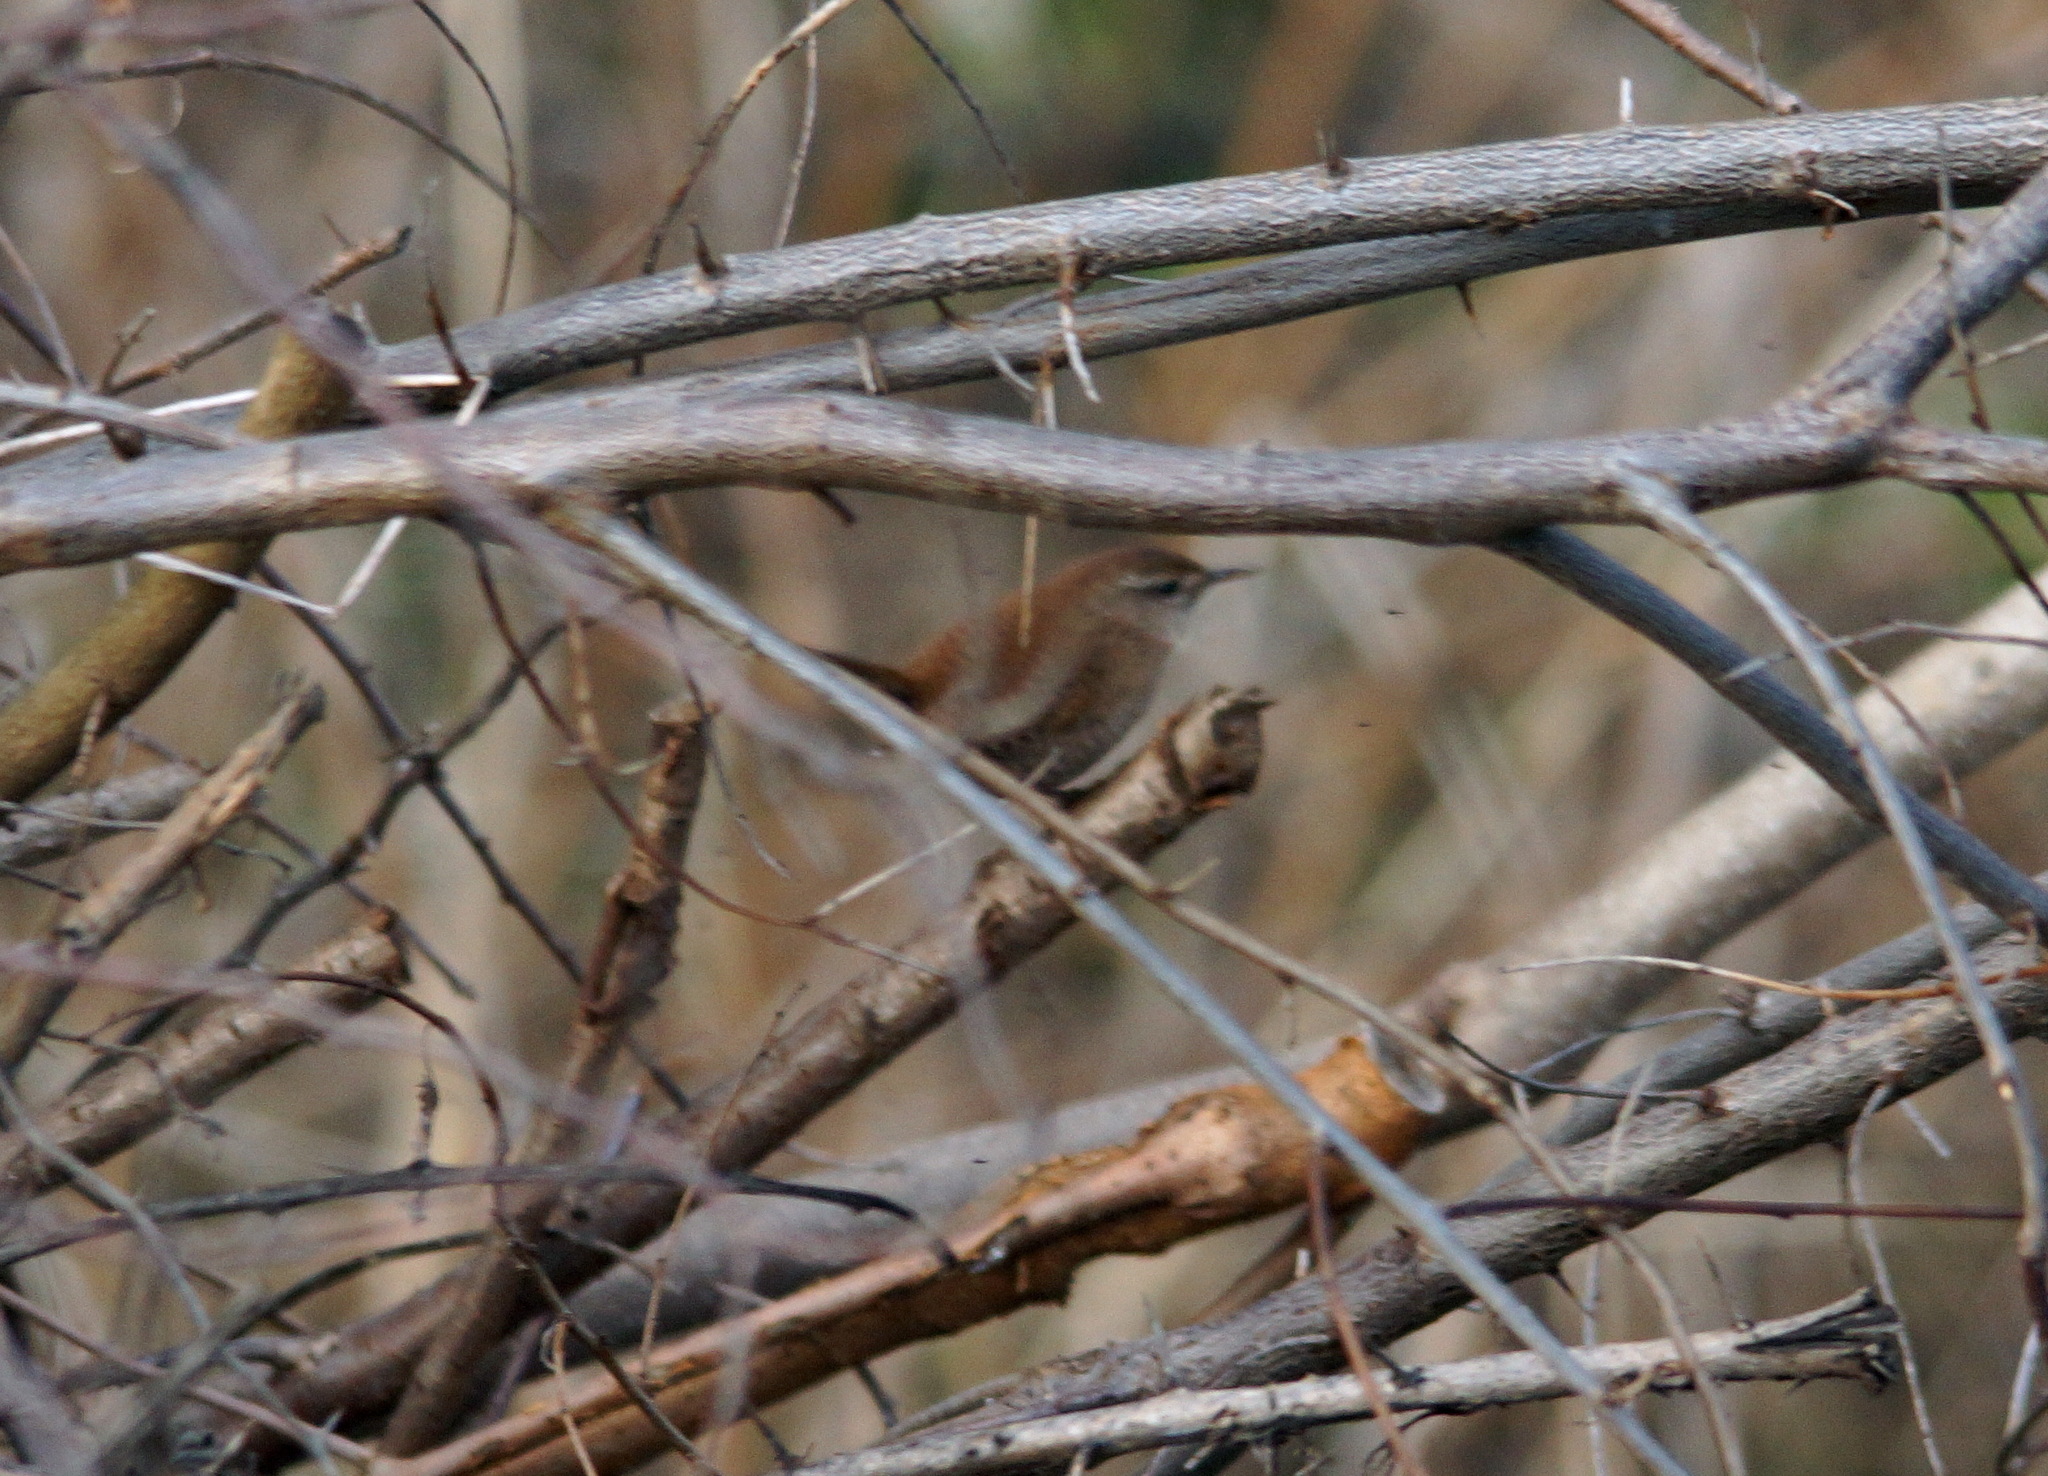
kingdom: Animalia
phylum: Chordata
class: Aves
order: Passeriformes
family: Troglodytidae
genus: Troglodytes
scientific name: Troglodytes troglodytes
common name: Eurasian wren
